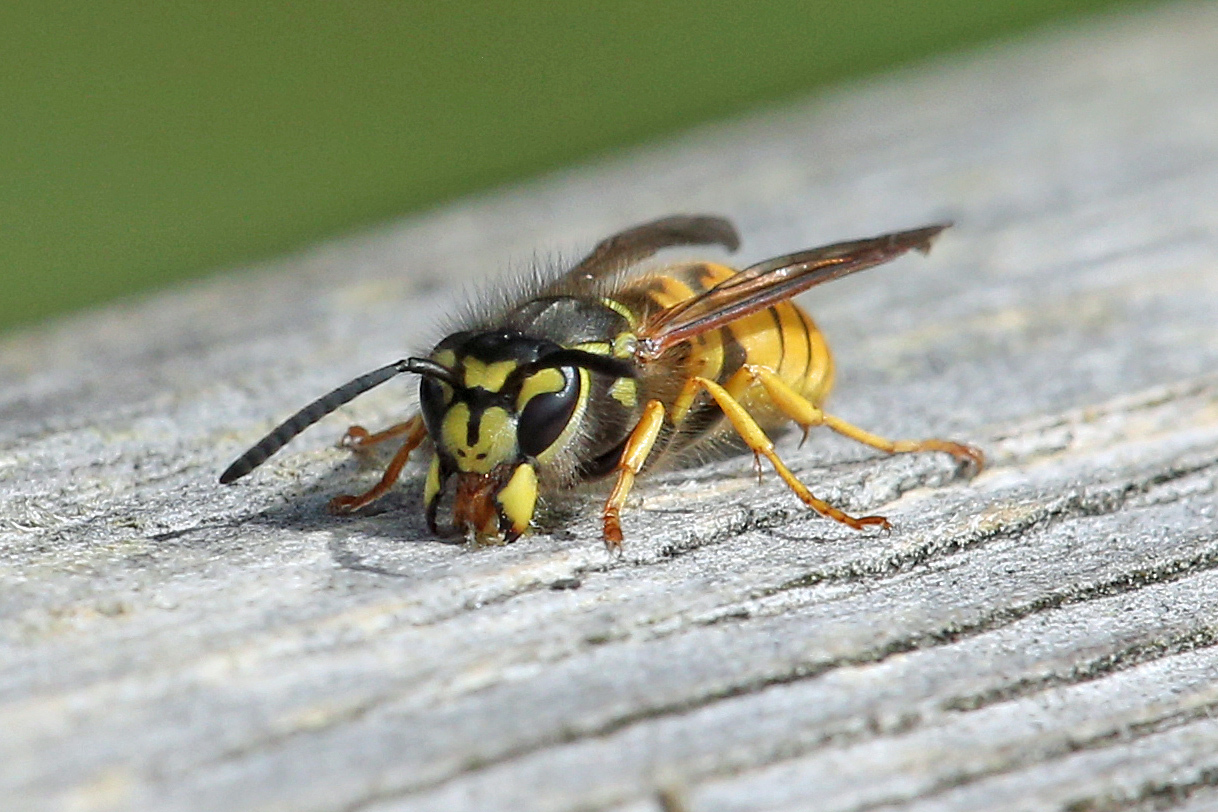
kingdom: Animalia
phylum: Arthropoda
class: Insecta
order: Hymenoptera
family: Vespidae
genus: Vespula
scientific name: Vespula germanica
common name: German wasp
